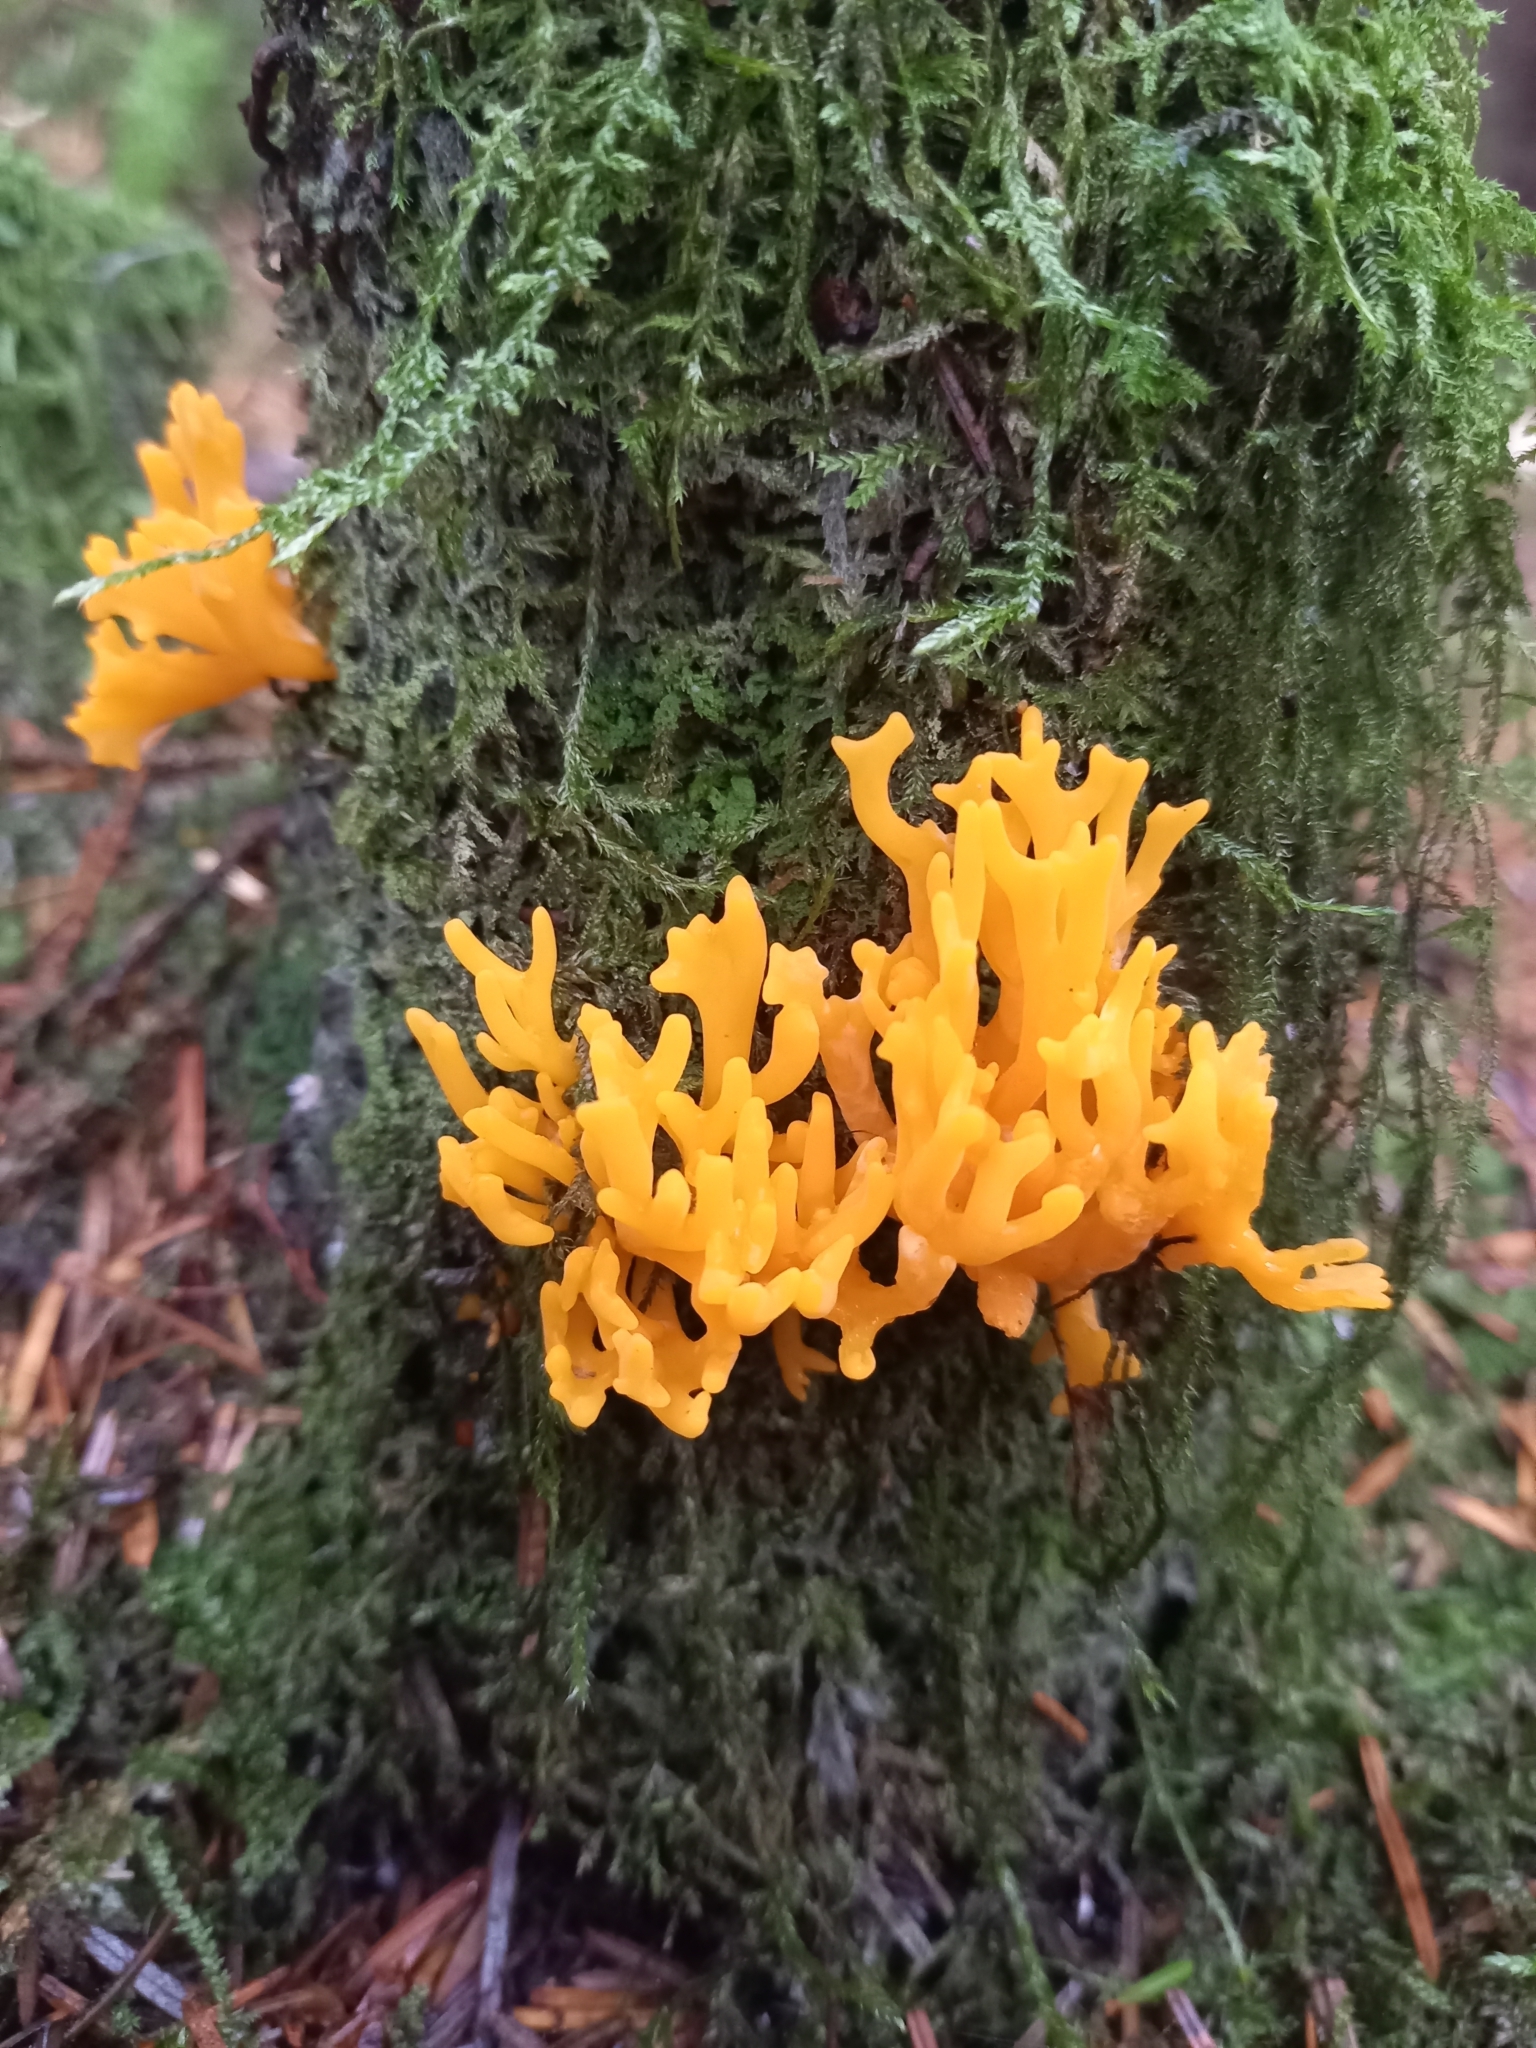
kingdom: Fungi
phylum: Basidiomycota
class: Dacrymycetes
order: Dacrymycetales
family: Dacrymycetaceae
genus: Calocera
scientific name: Calocera viscosa
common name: Yellow stagshorn
